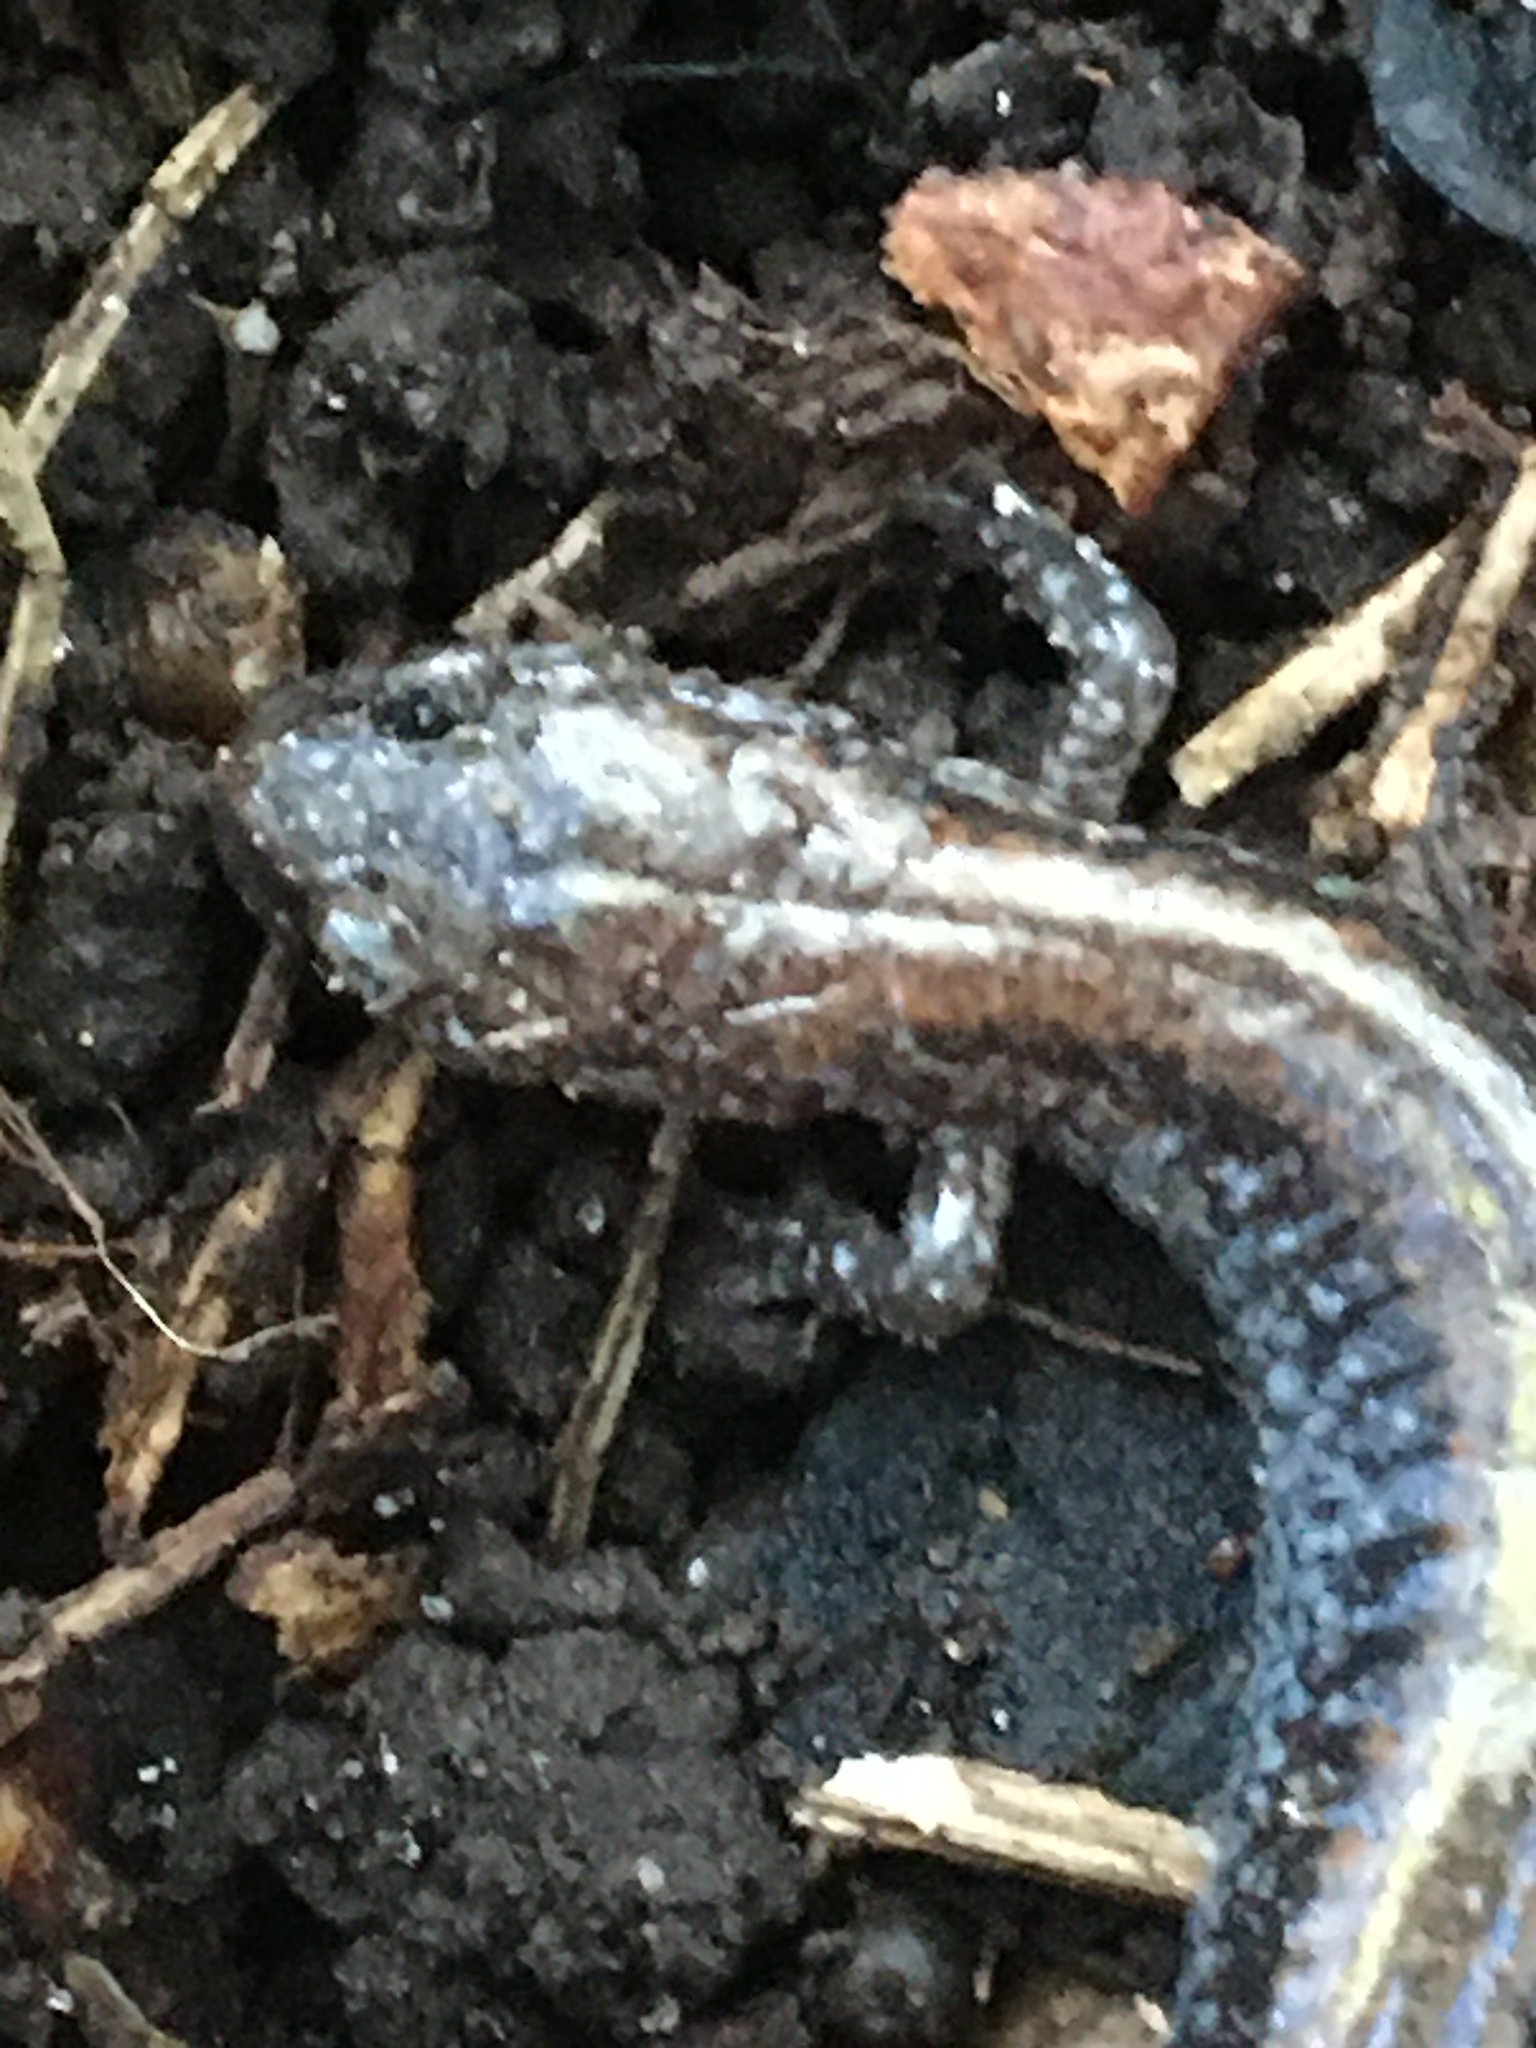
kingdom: Animalia
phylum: Chordata
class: Amphibia
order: Caudata
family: Plethodontidae
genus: Plethodon
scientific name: Plethodon cinereus
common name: Redback salamander
